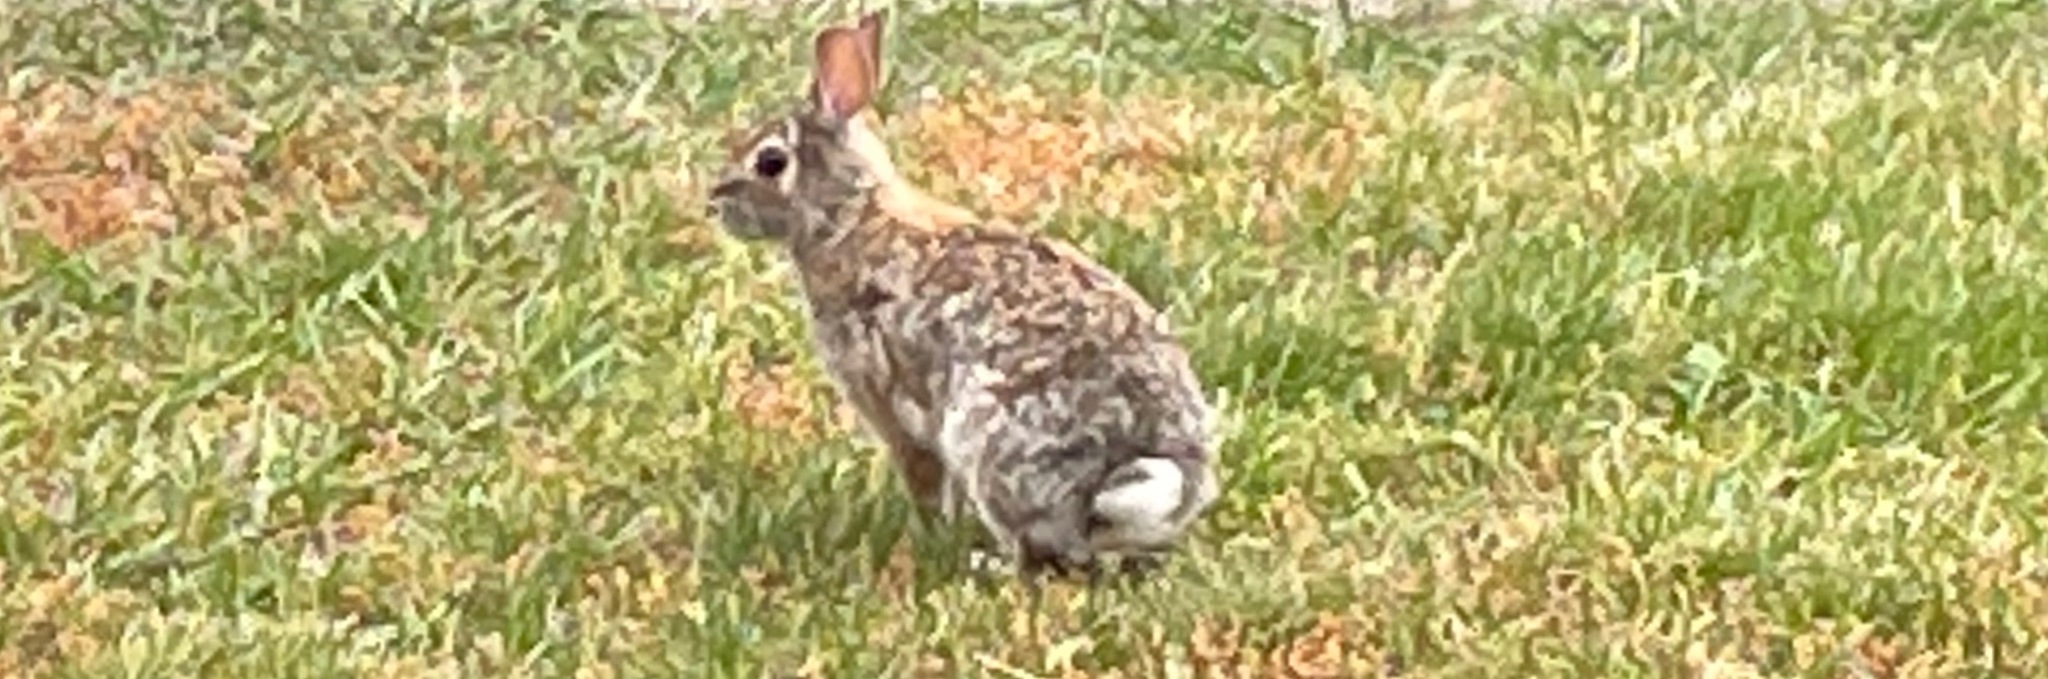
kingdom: Animalia
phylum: Chordata
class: Mammalia
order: Lagomorpha
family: Leporidae
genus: Sylvilagus
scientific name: Sylvilagus floridanus
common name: Eastern cottontail
